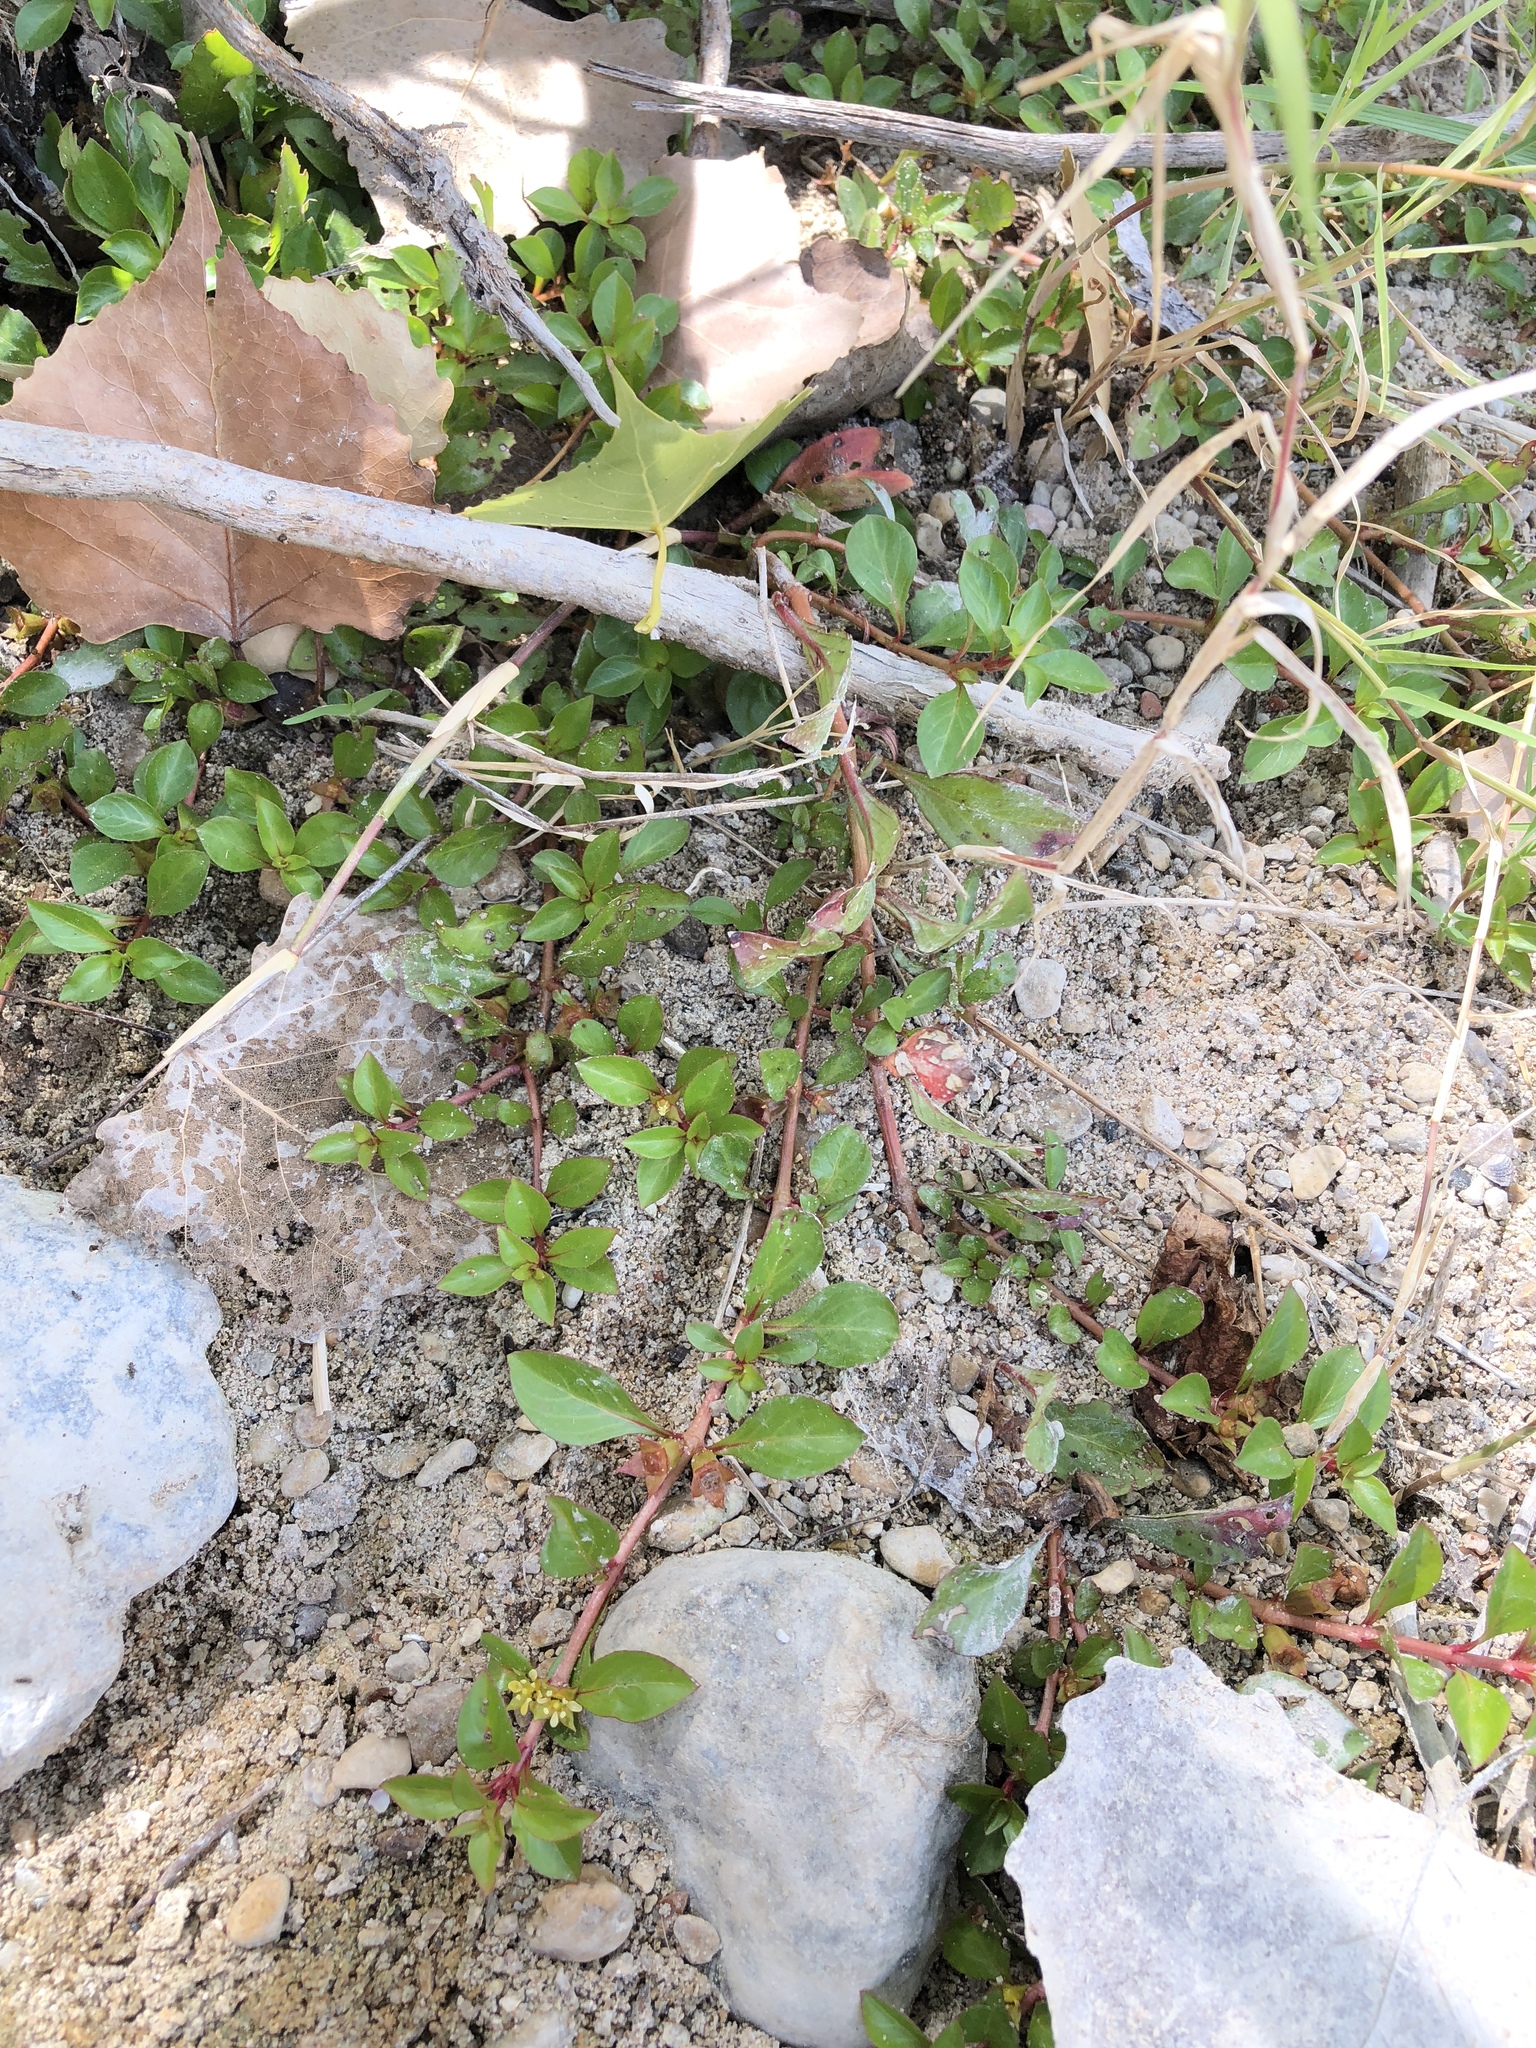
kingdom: Plantae
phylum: Tracheophyta
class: Magnoliopsida
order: Myrtales
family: Onagraceae
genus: Ludwigia
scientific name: Ludwigia repens
